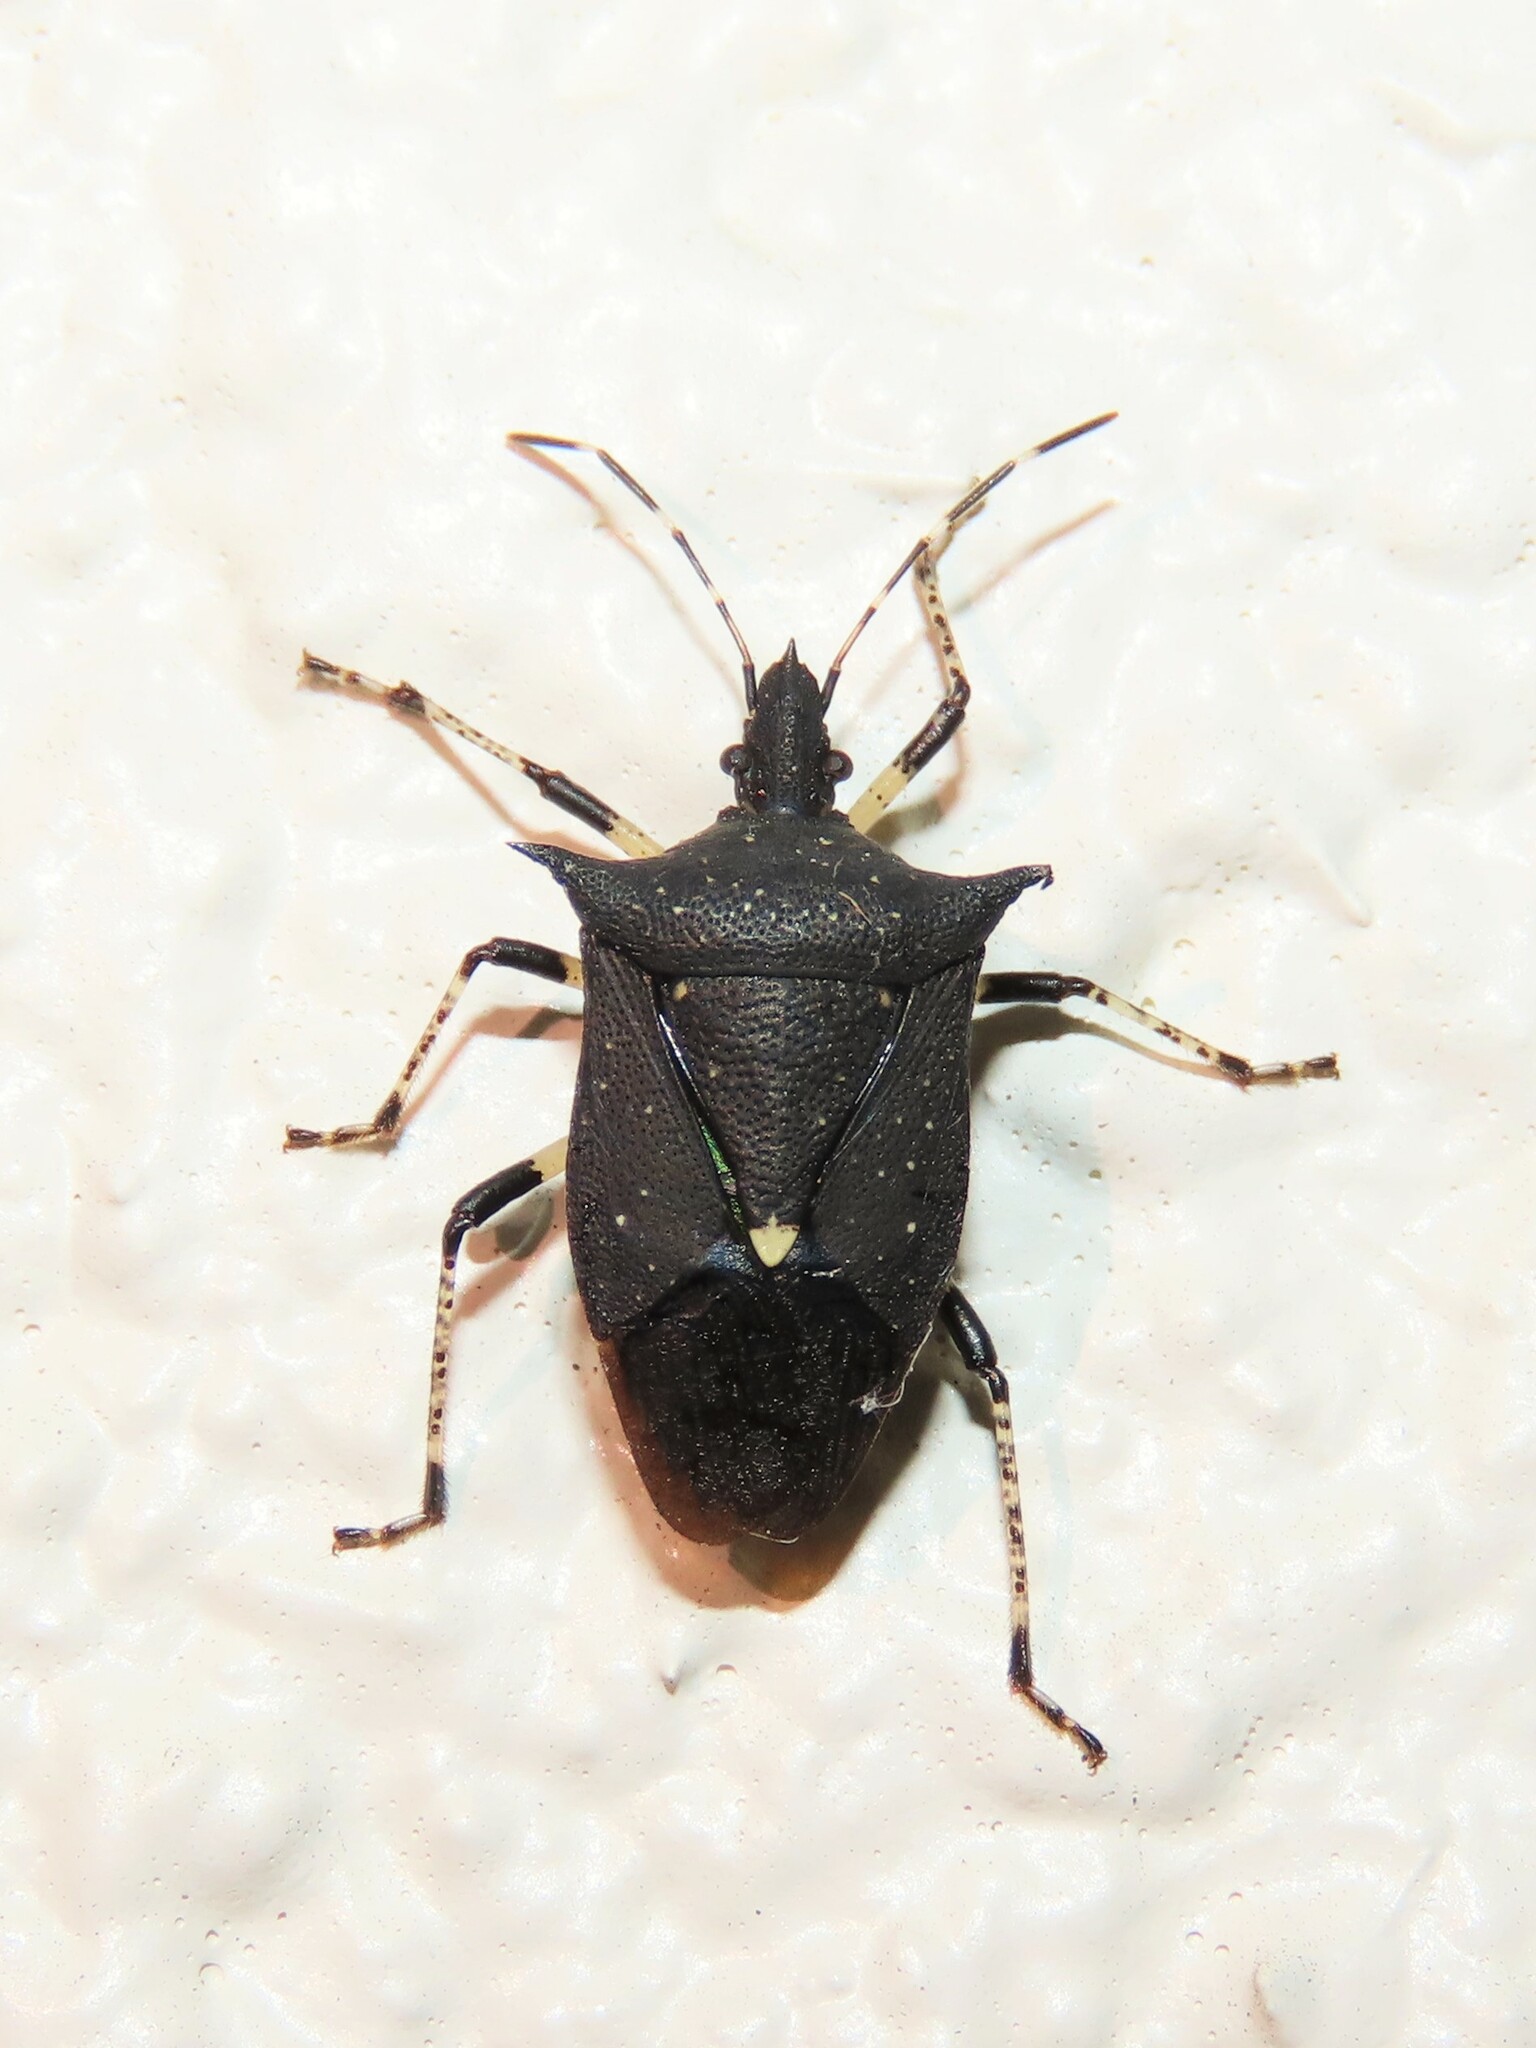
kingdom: Animalia
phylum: Arthropoda
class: Insecta
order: Hemiptera
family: Pentatomidae
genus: Proxys
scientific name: Proxys punctulatus
